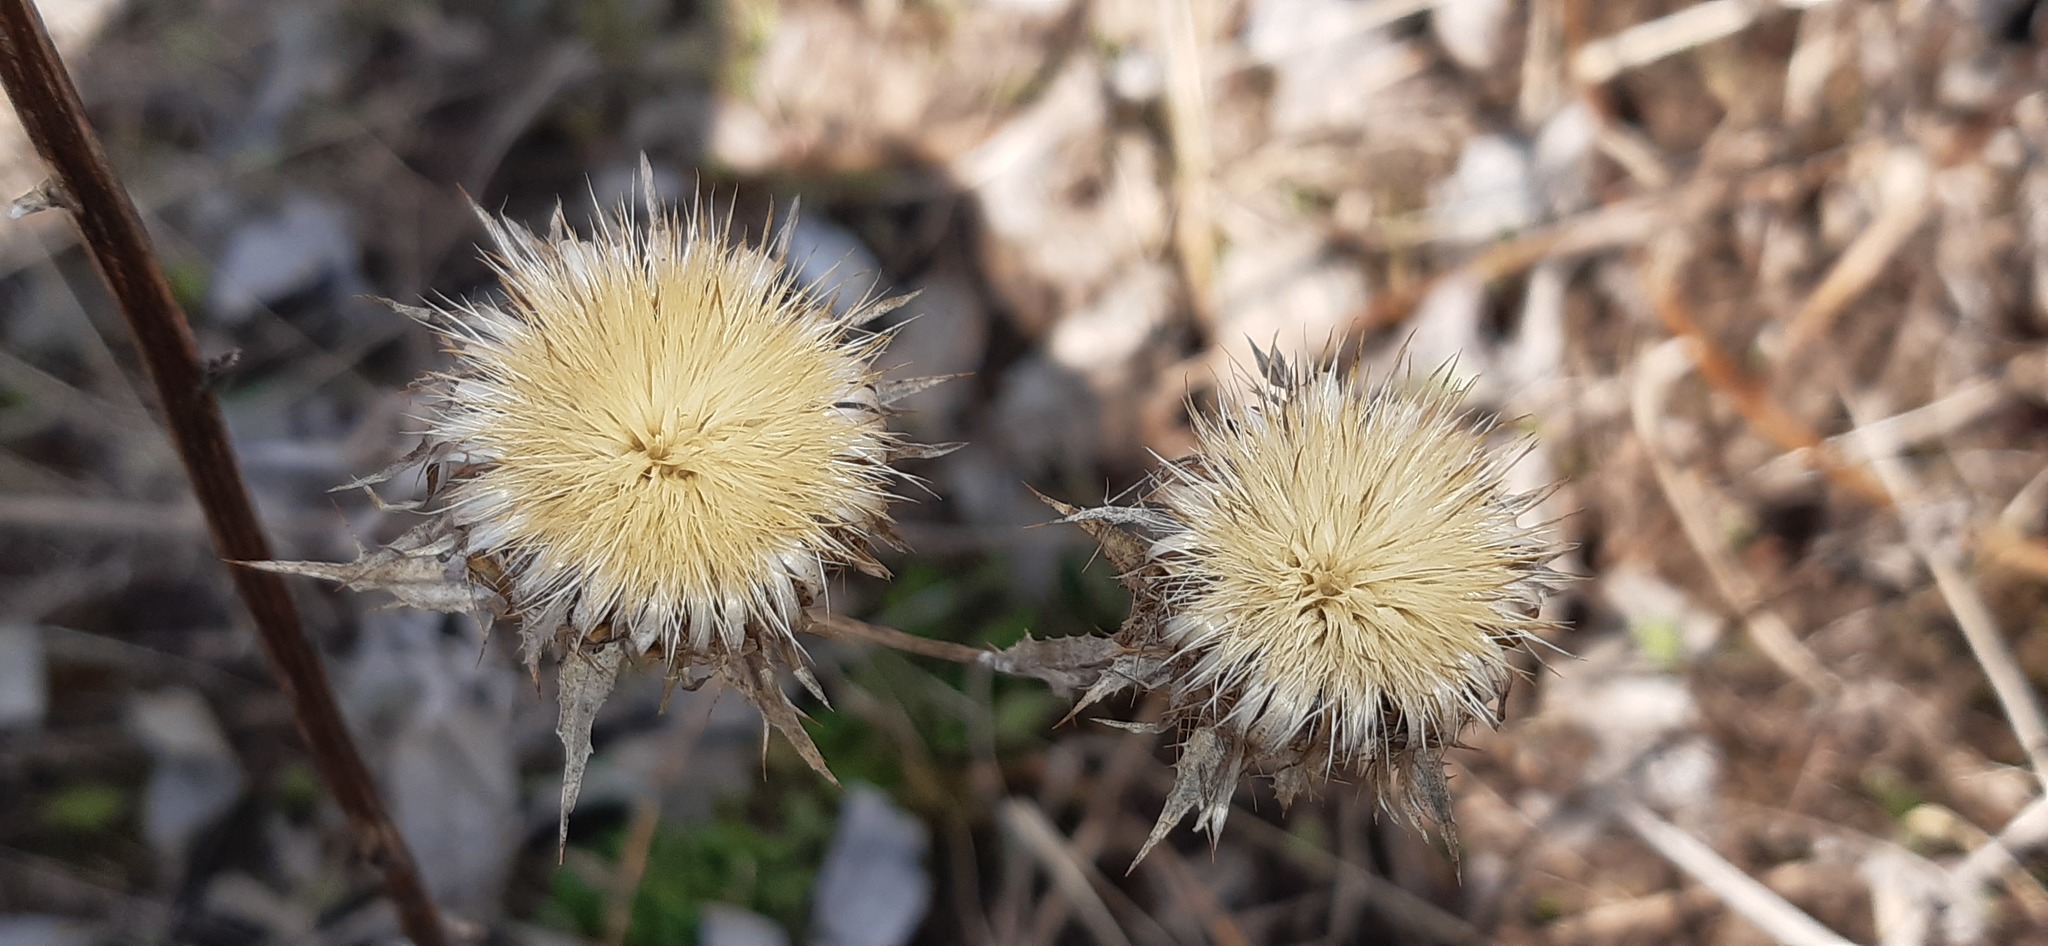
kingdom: Plantae
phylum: Tracheophyta
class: Magnoliopsida
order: Asterales
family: Asteraceae
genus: Carlina
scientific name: Carlina biebersteinii
